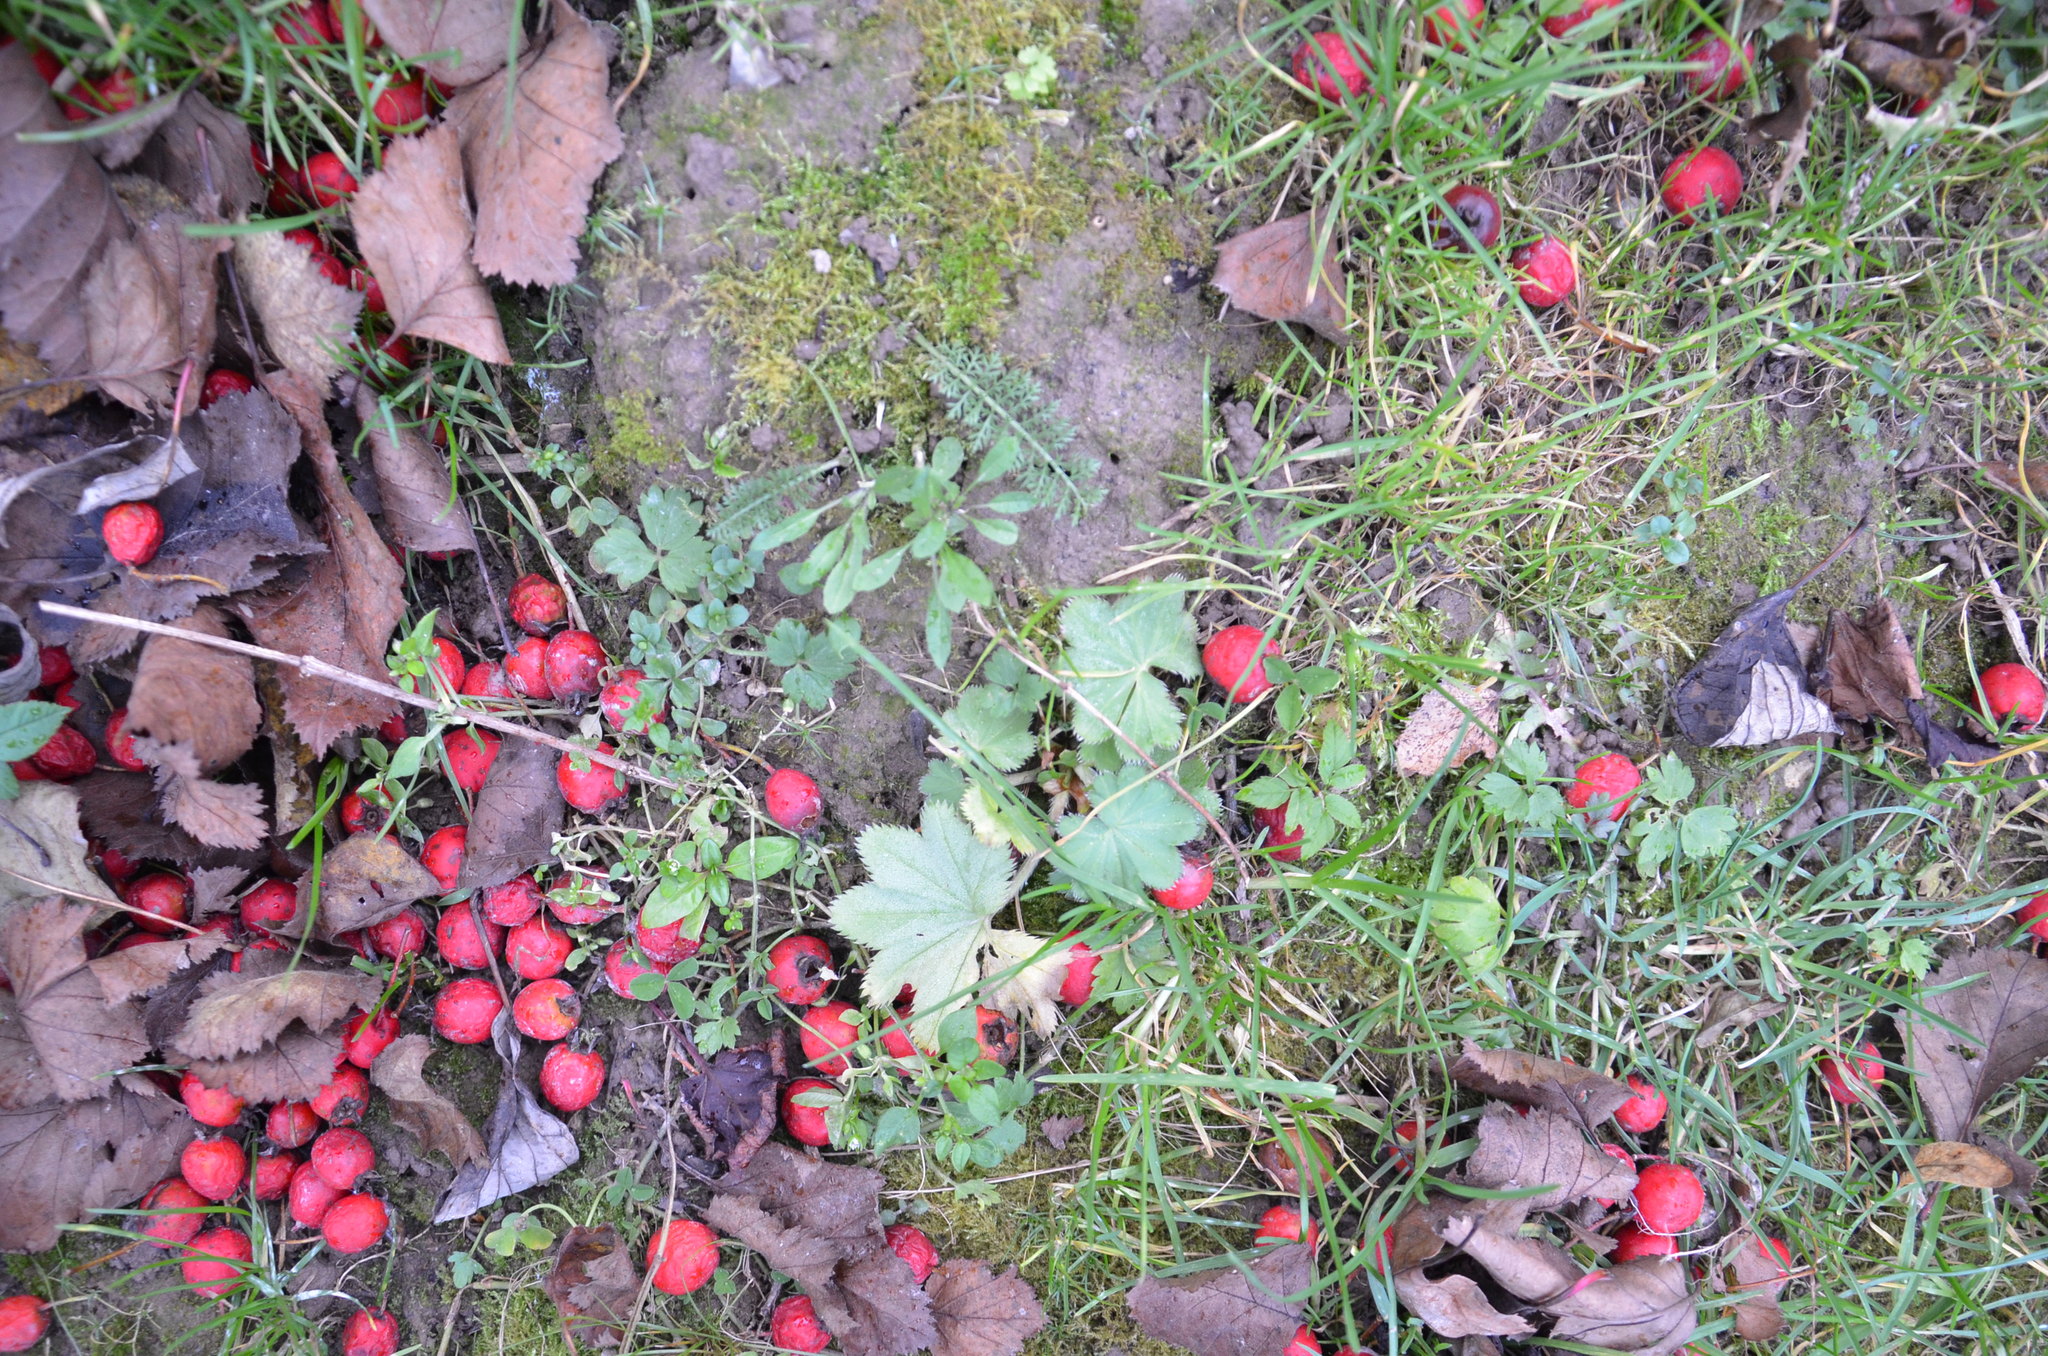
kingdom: Plantae
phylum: Tracheophyta
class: Magnoliopsida
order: Rosales
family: Rosaceae
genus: Alchemilla
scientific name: Alchemilla
